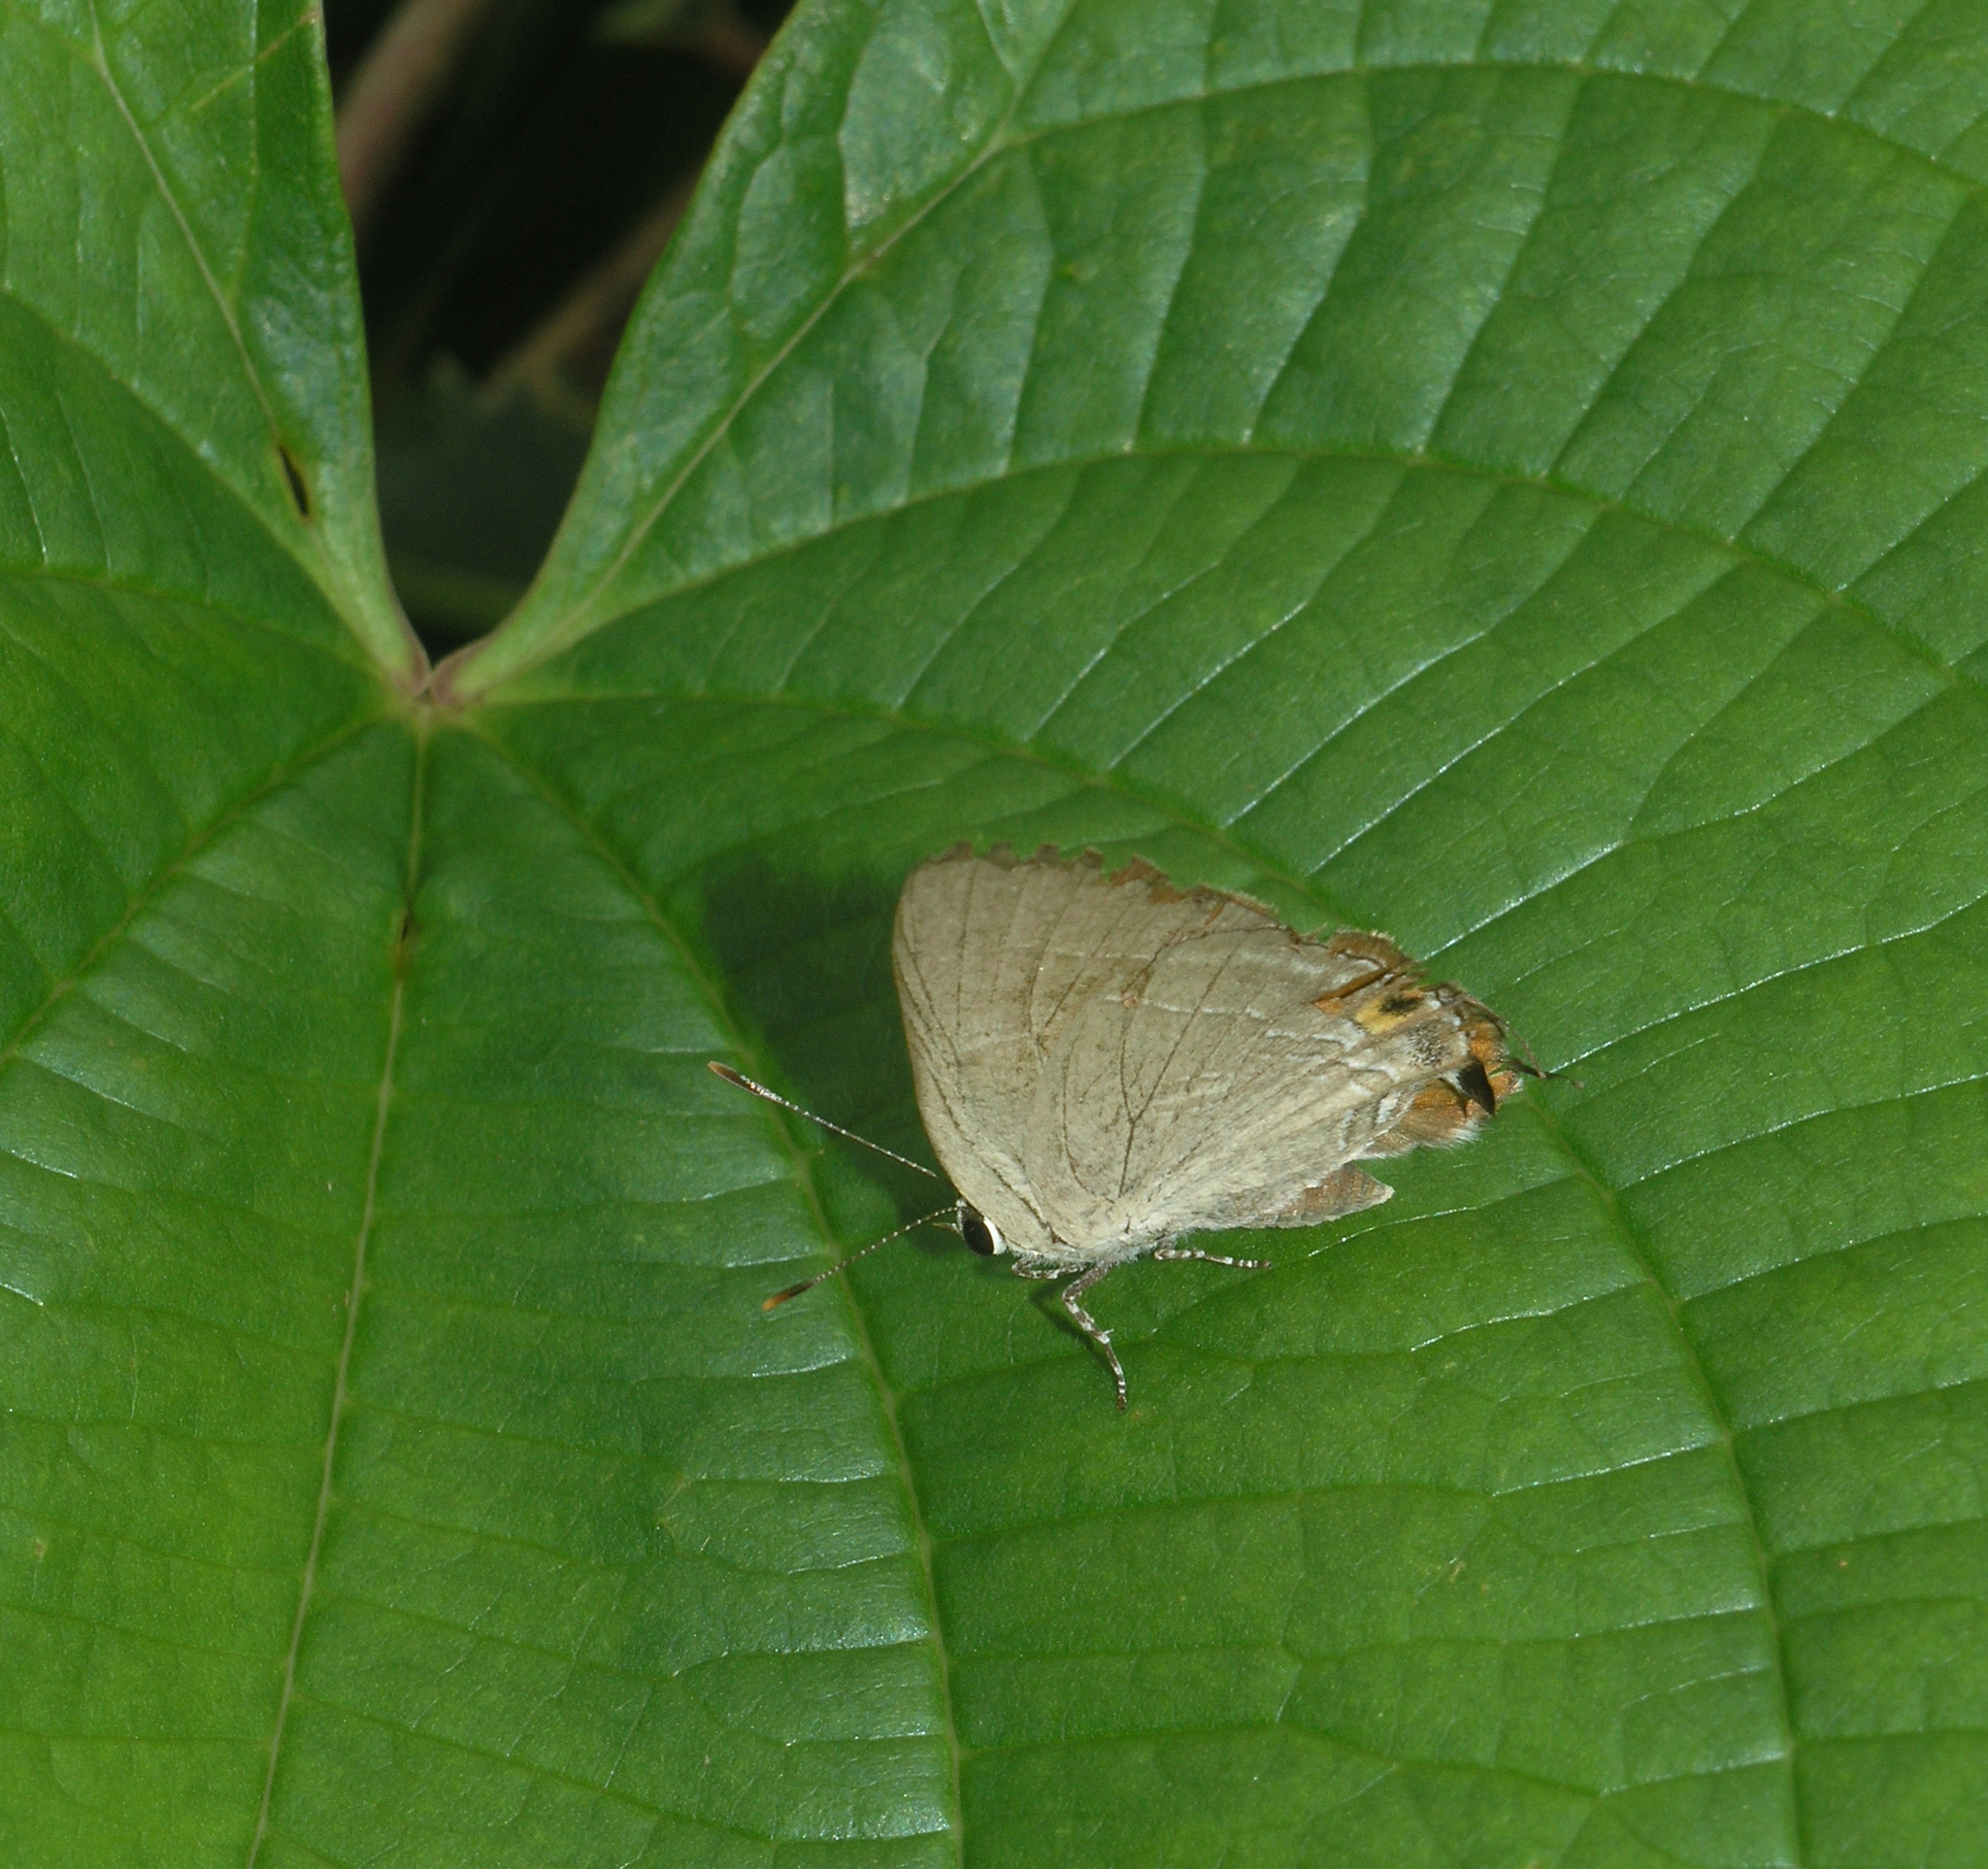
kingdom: Animalia
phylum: Arthropoda
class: Insecta
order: Lepidoptera
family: Lycaenidae
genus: Rapala
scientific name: Rapala iarbas
